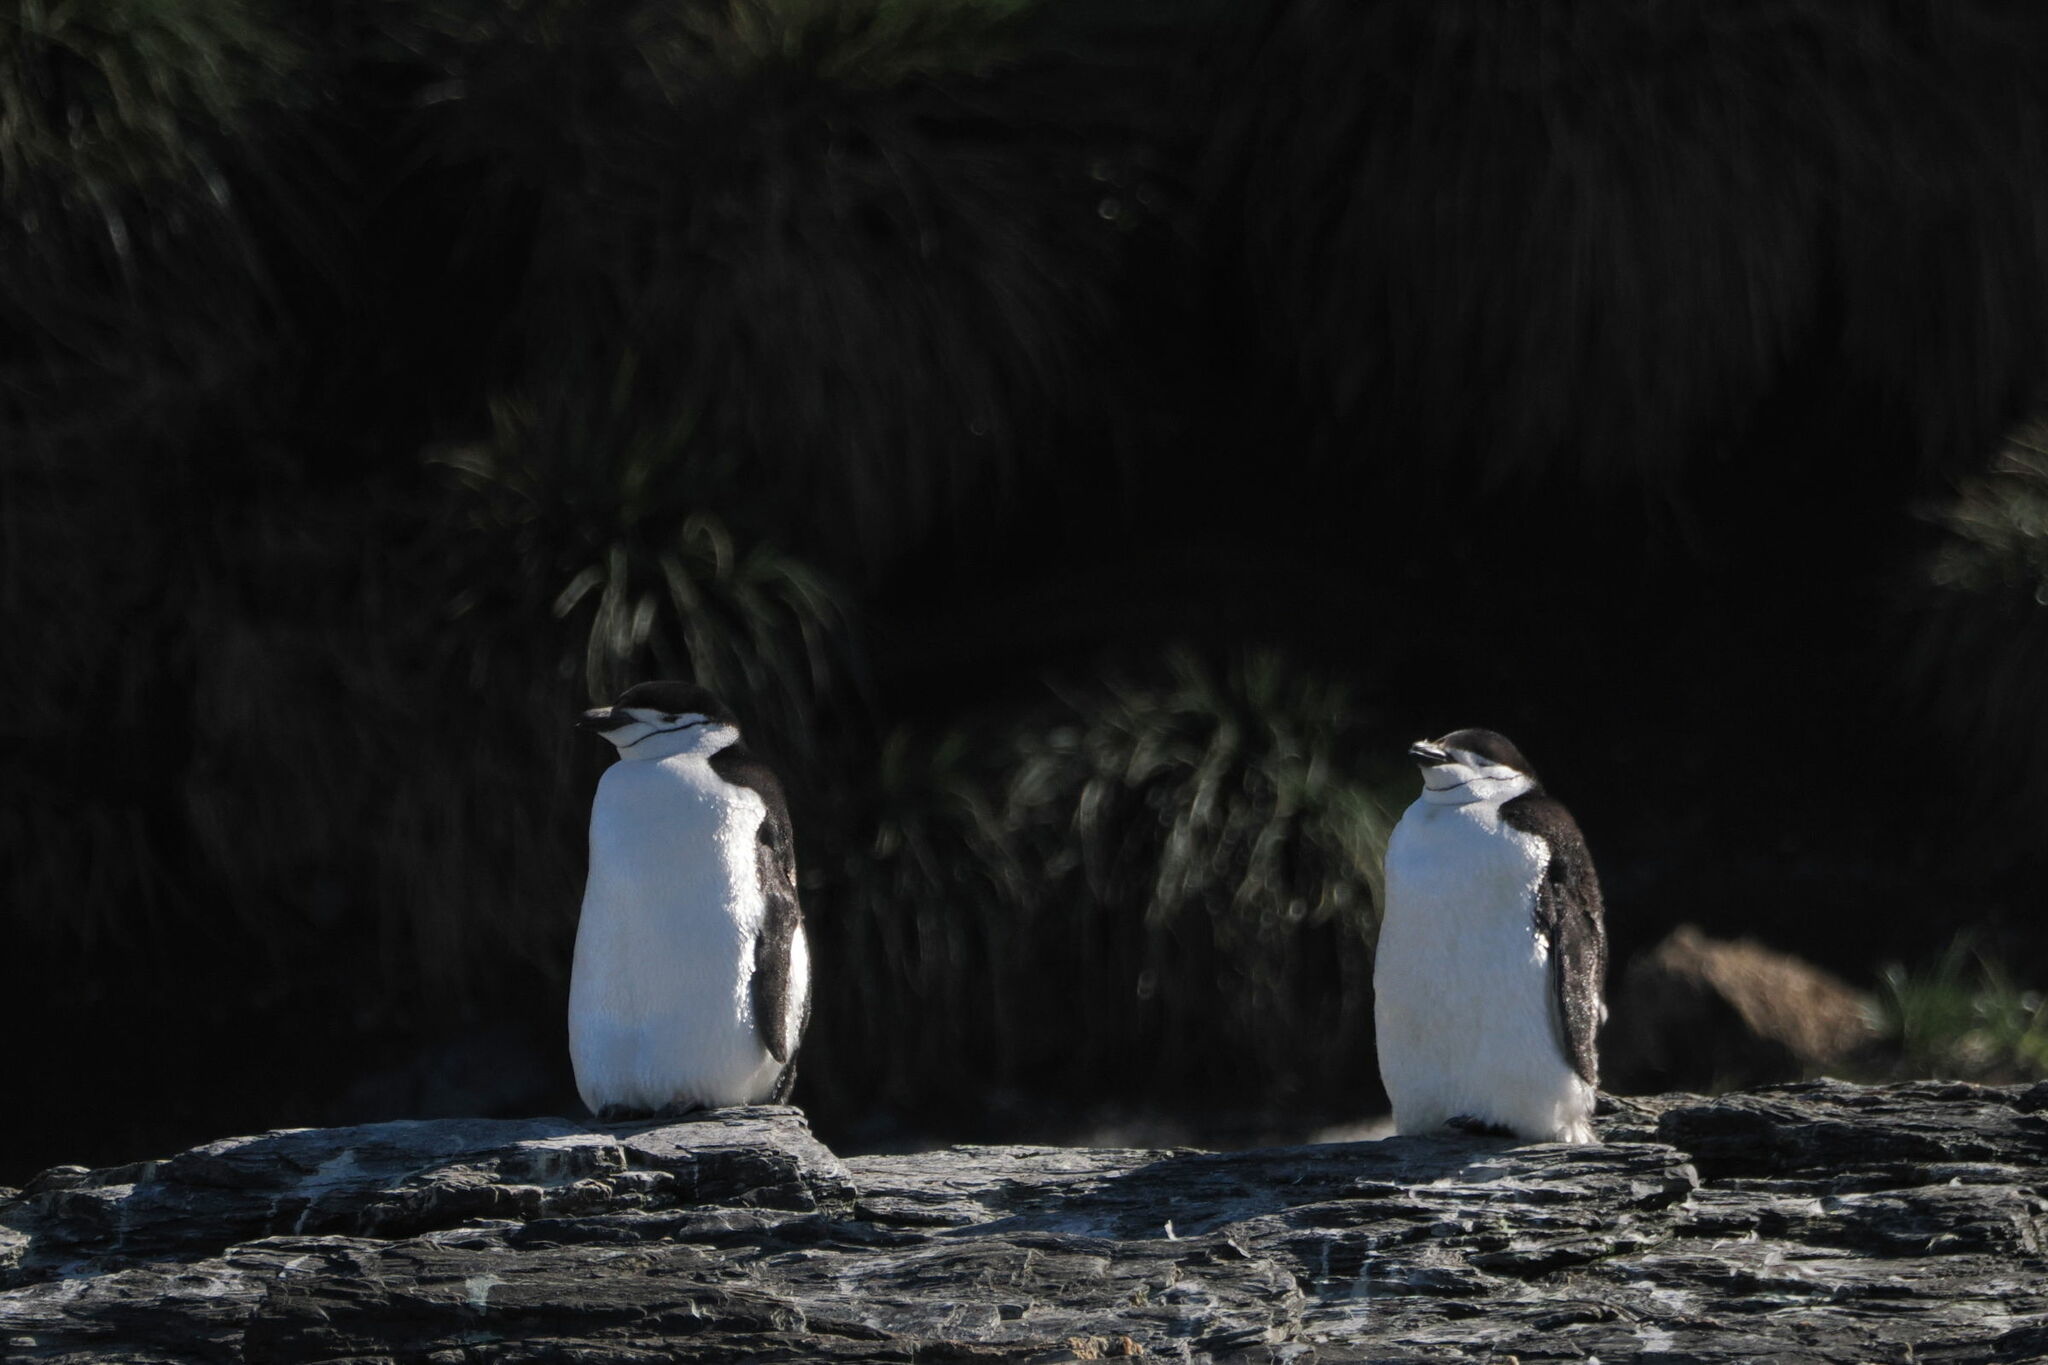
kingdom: Animalia
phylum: Chordata
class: Aves
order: Sphenisciformes
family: Spheniscidae
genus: Pygoscelis
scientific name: Pygoscelis antarcticus
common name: Chinstrap penguin
